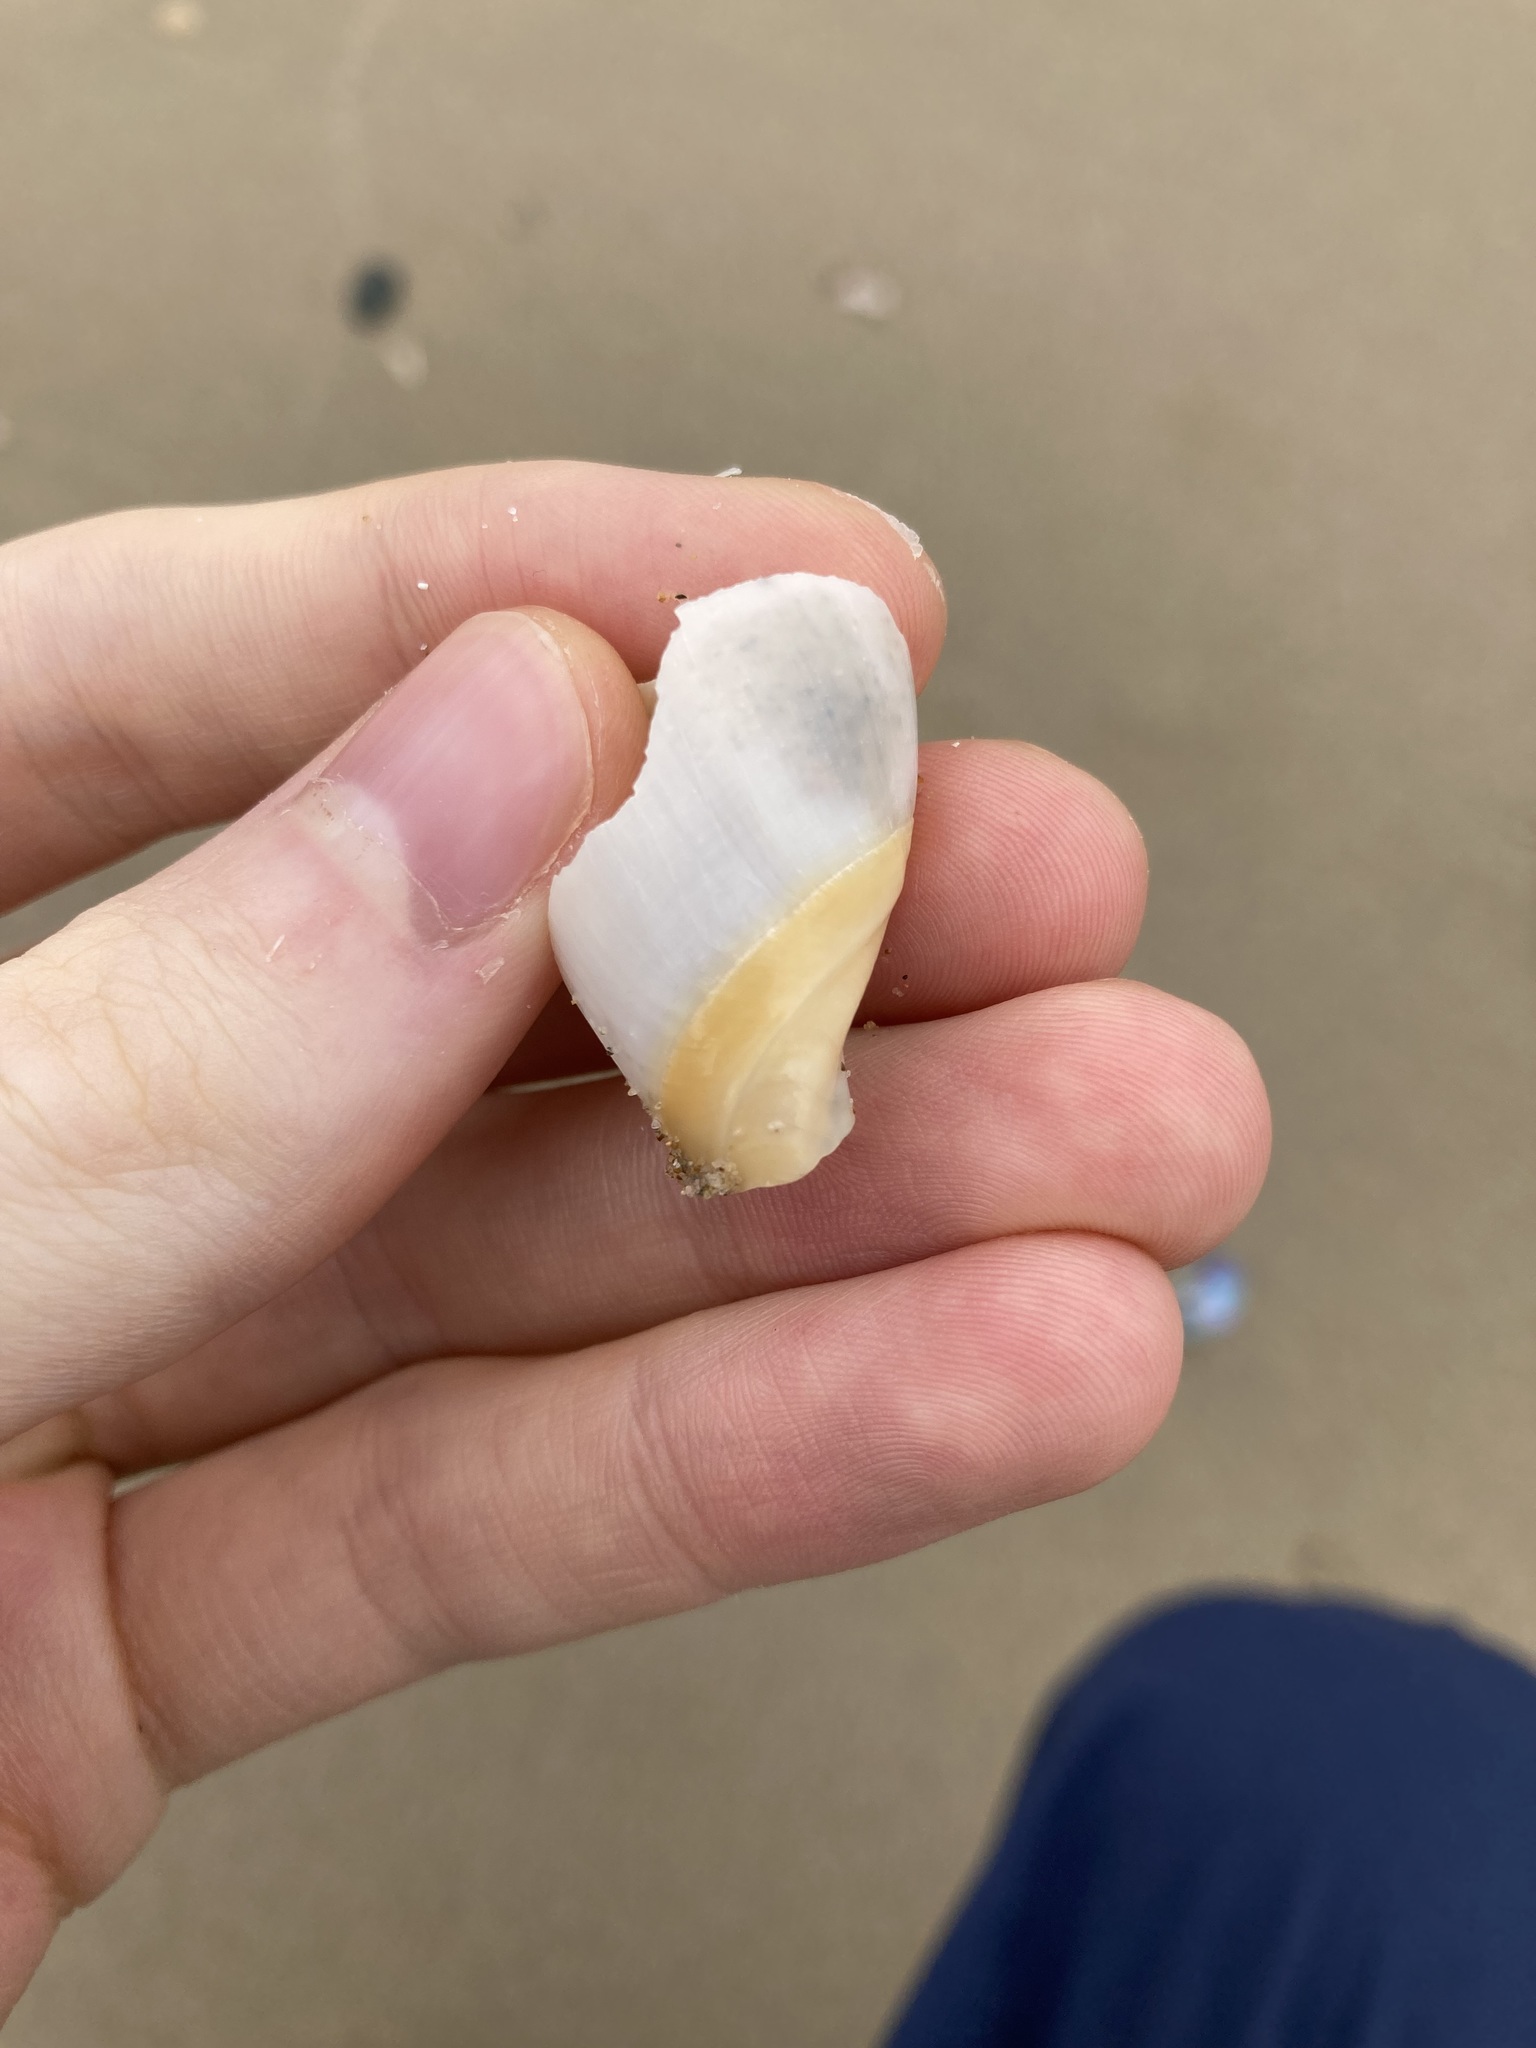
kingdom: Animalia
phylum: Mollusca
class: Gastropoda
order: Neogastropoda
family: Ancillariidae
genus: Ancillista
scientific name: Ancillista velesiana
